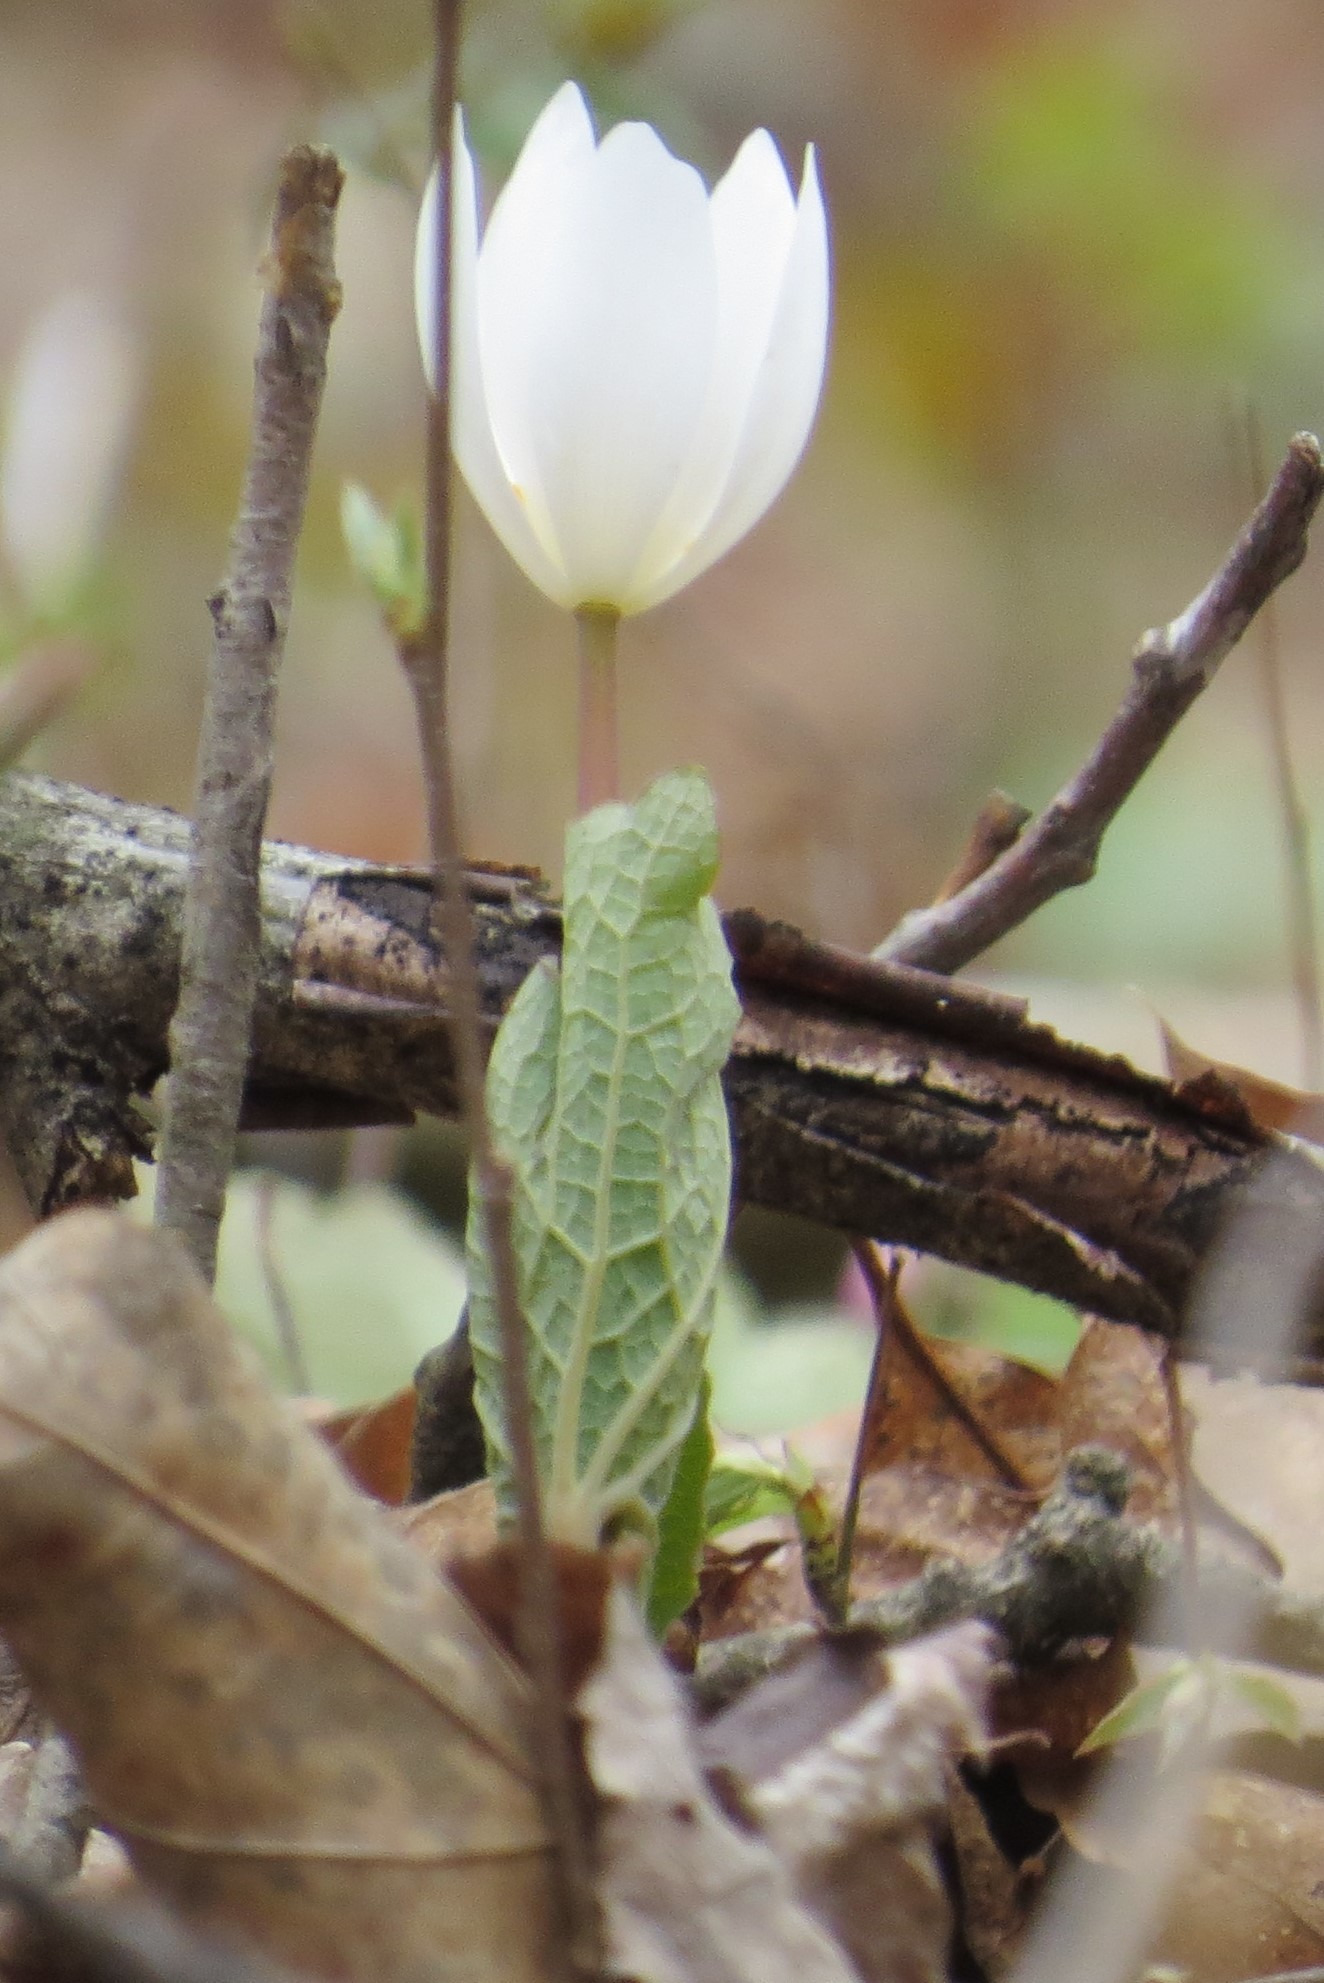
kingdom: Plantae
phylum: Tracheophyta
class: Magnoliopsida
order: Ranunculales
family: Papaveraceae
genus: Sanguinaria
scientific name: Sanguinaria canadensis
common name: Bloodroot
